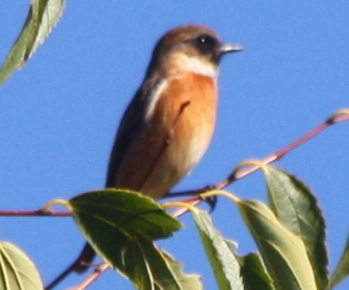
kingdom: Animalia
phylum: Chordata
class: Aves
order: Passeriformes
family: Muscicapidae
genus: Saxicola
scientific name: Saxicola rubicola
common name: European stonechat
